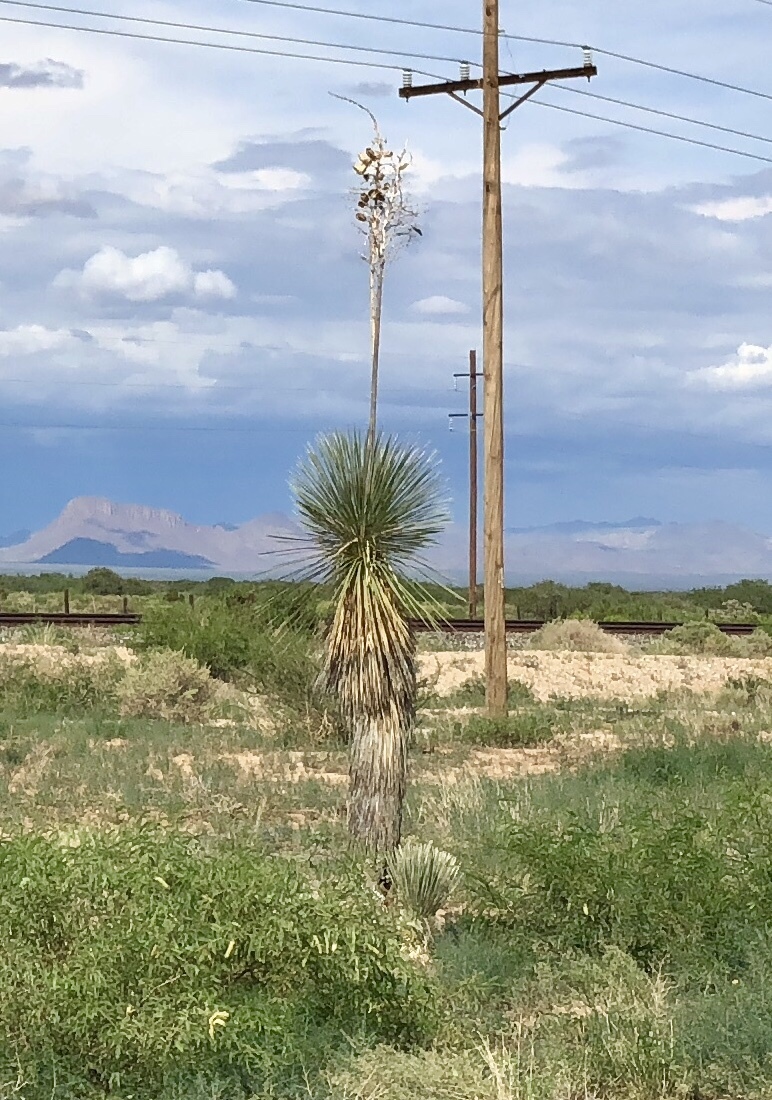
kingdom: Plantae
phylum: Tracheophyta
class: Liliopsida
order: Asparagales
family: Asparagaceae
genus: Yucca
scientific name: Yucca elata
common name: Palmella
